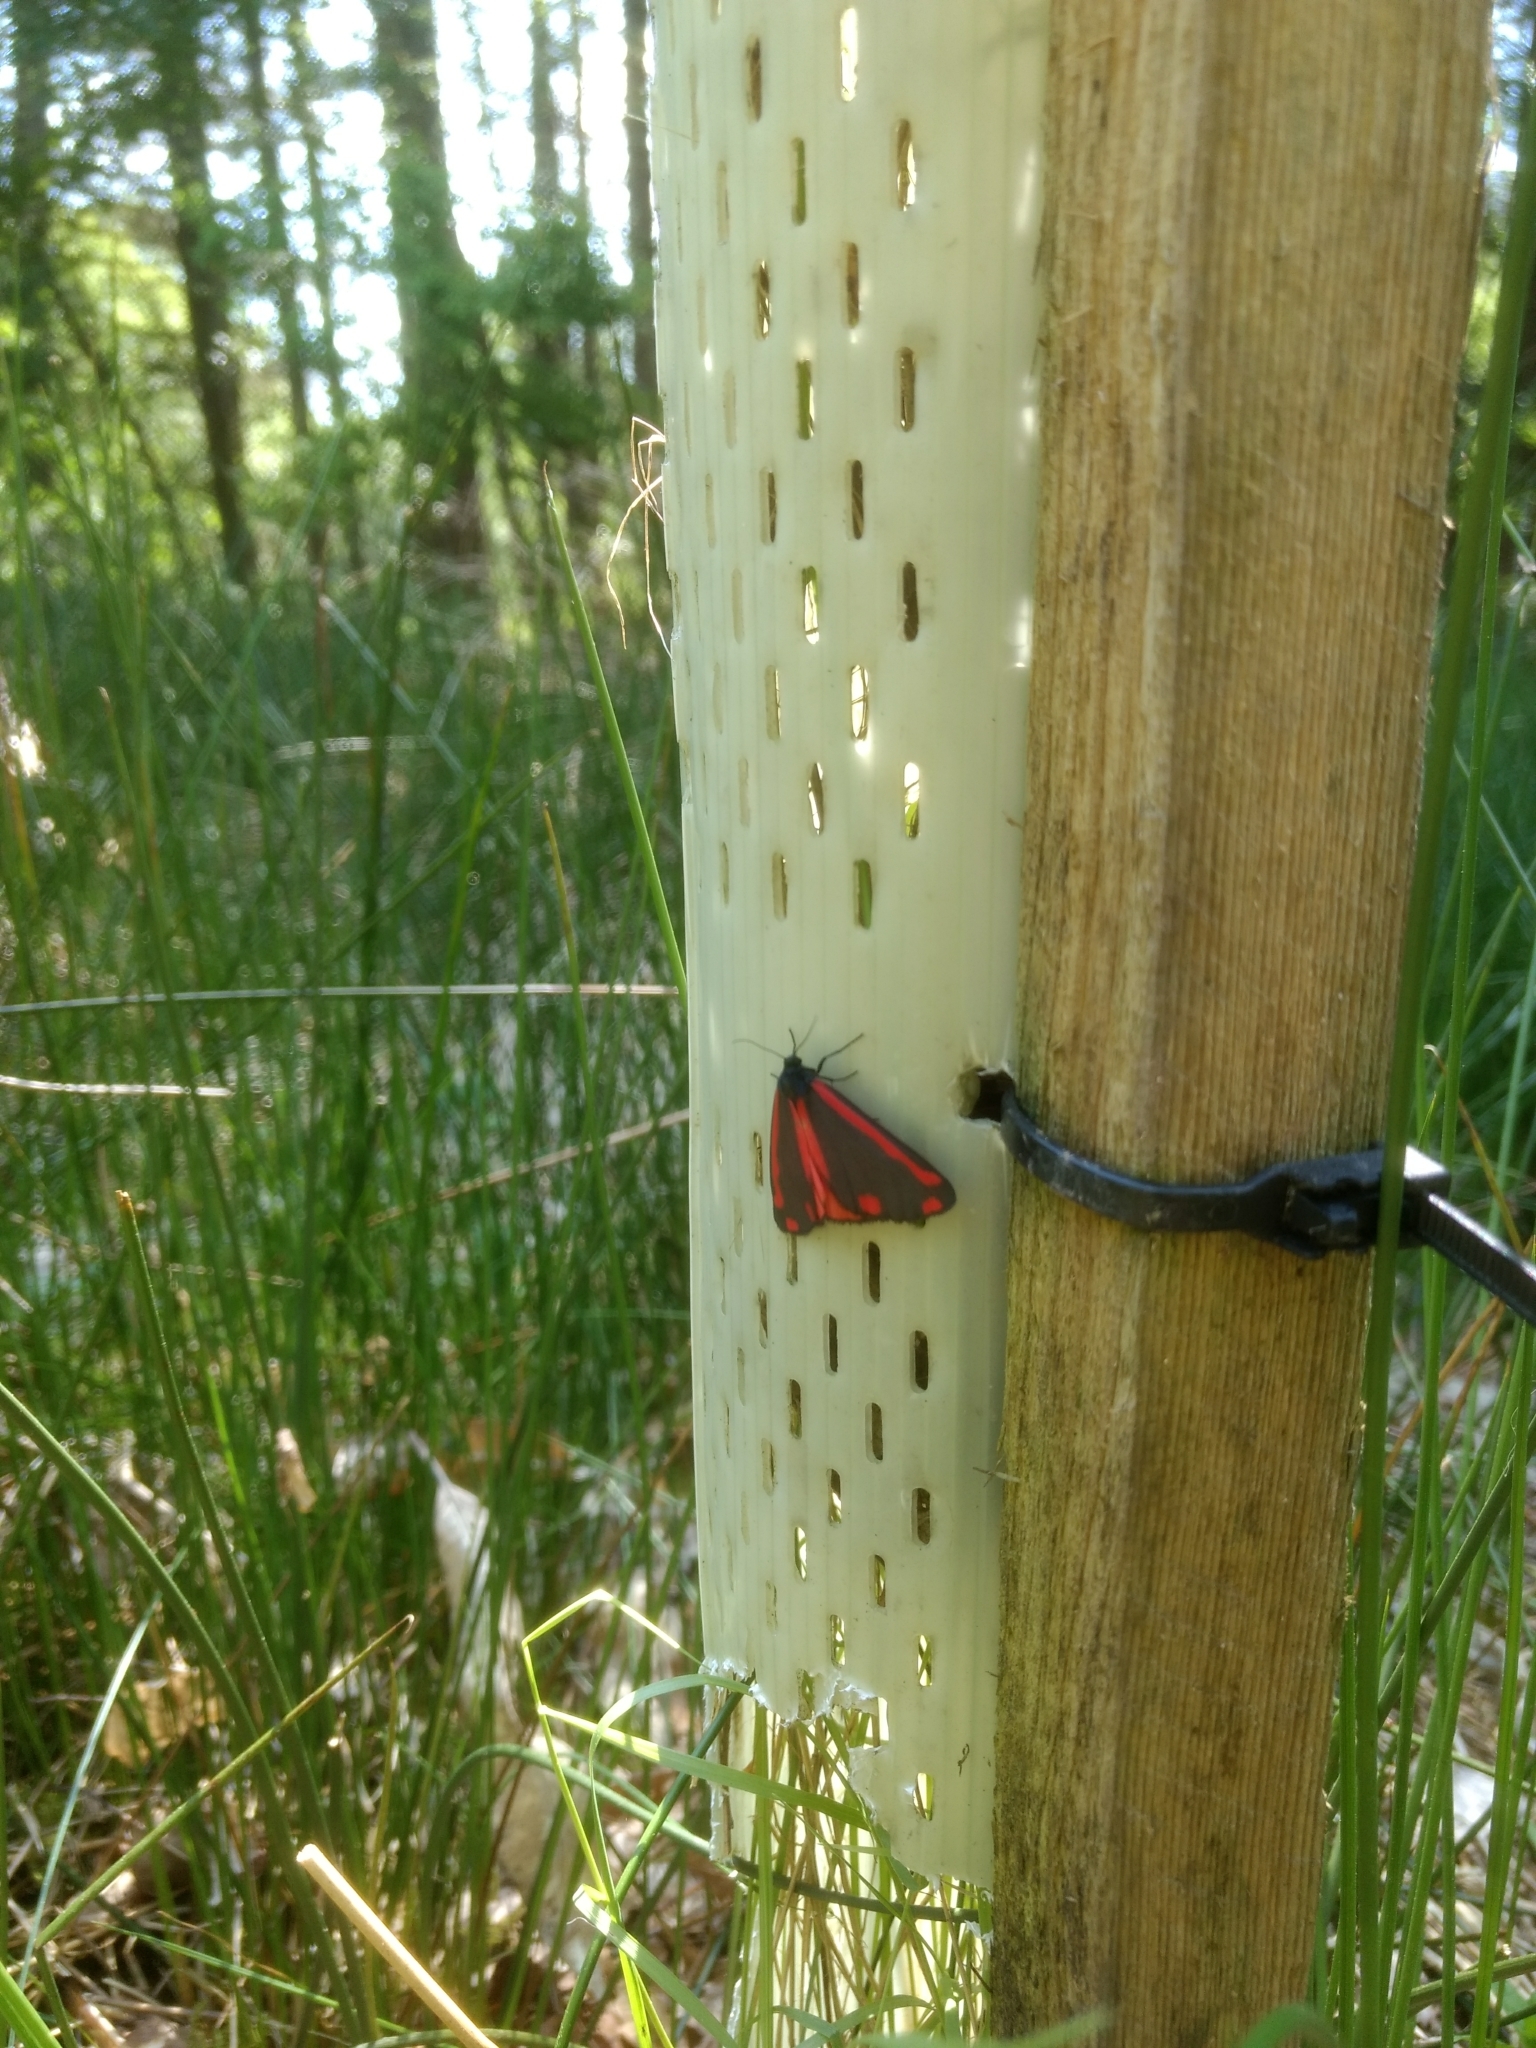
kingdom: Animalia
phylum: Arthropoda
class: Insecta
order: Lepidoptera
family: Erebidae
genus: Tyria
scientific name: Tyria jacobaeae
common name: Cinnabar
